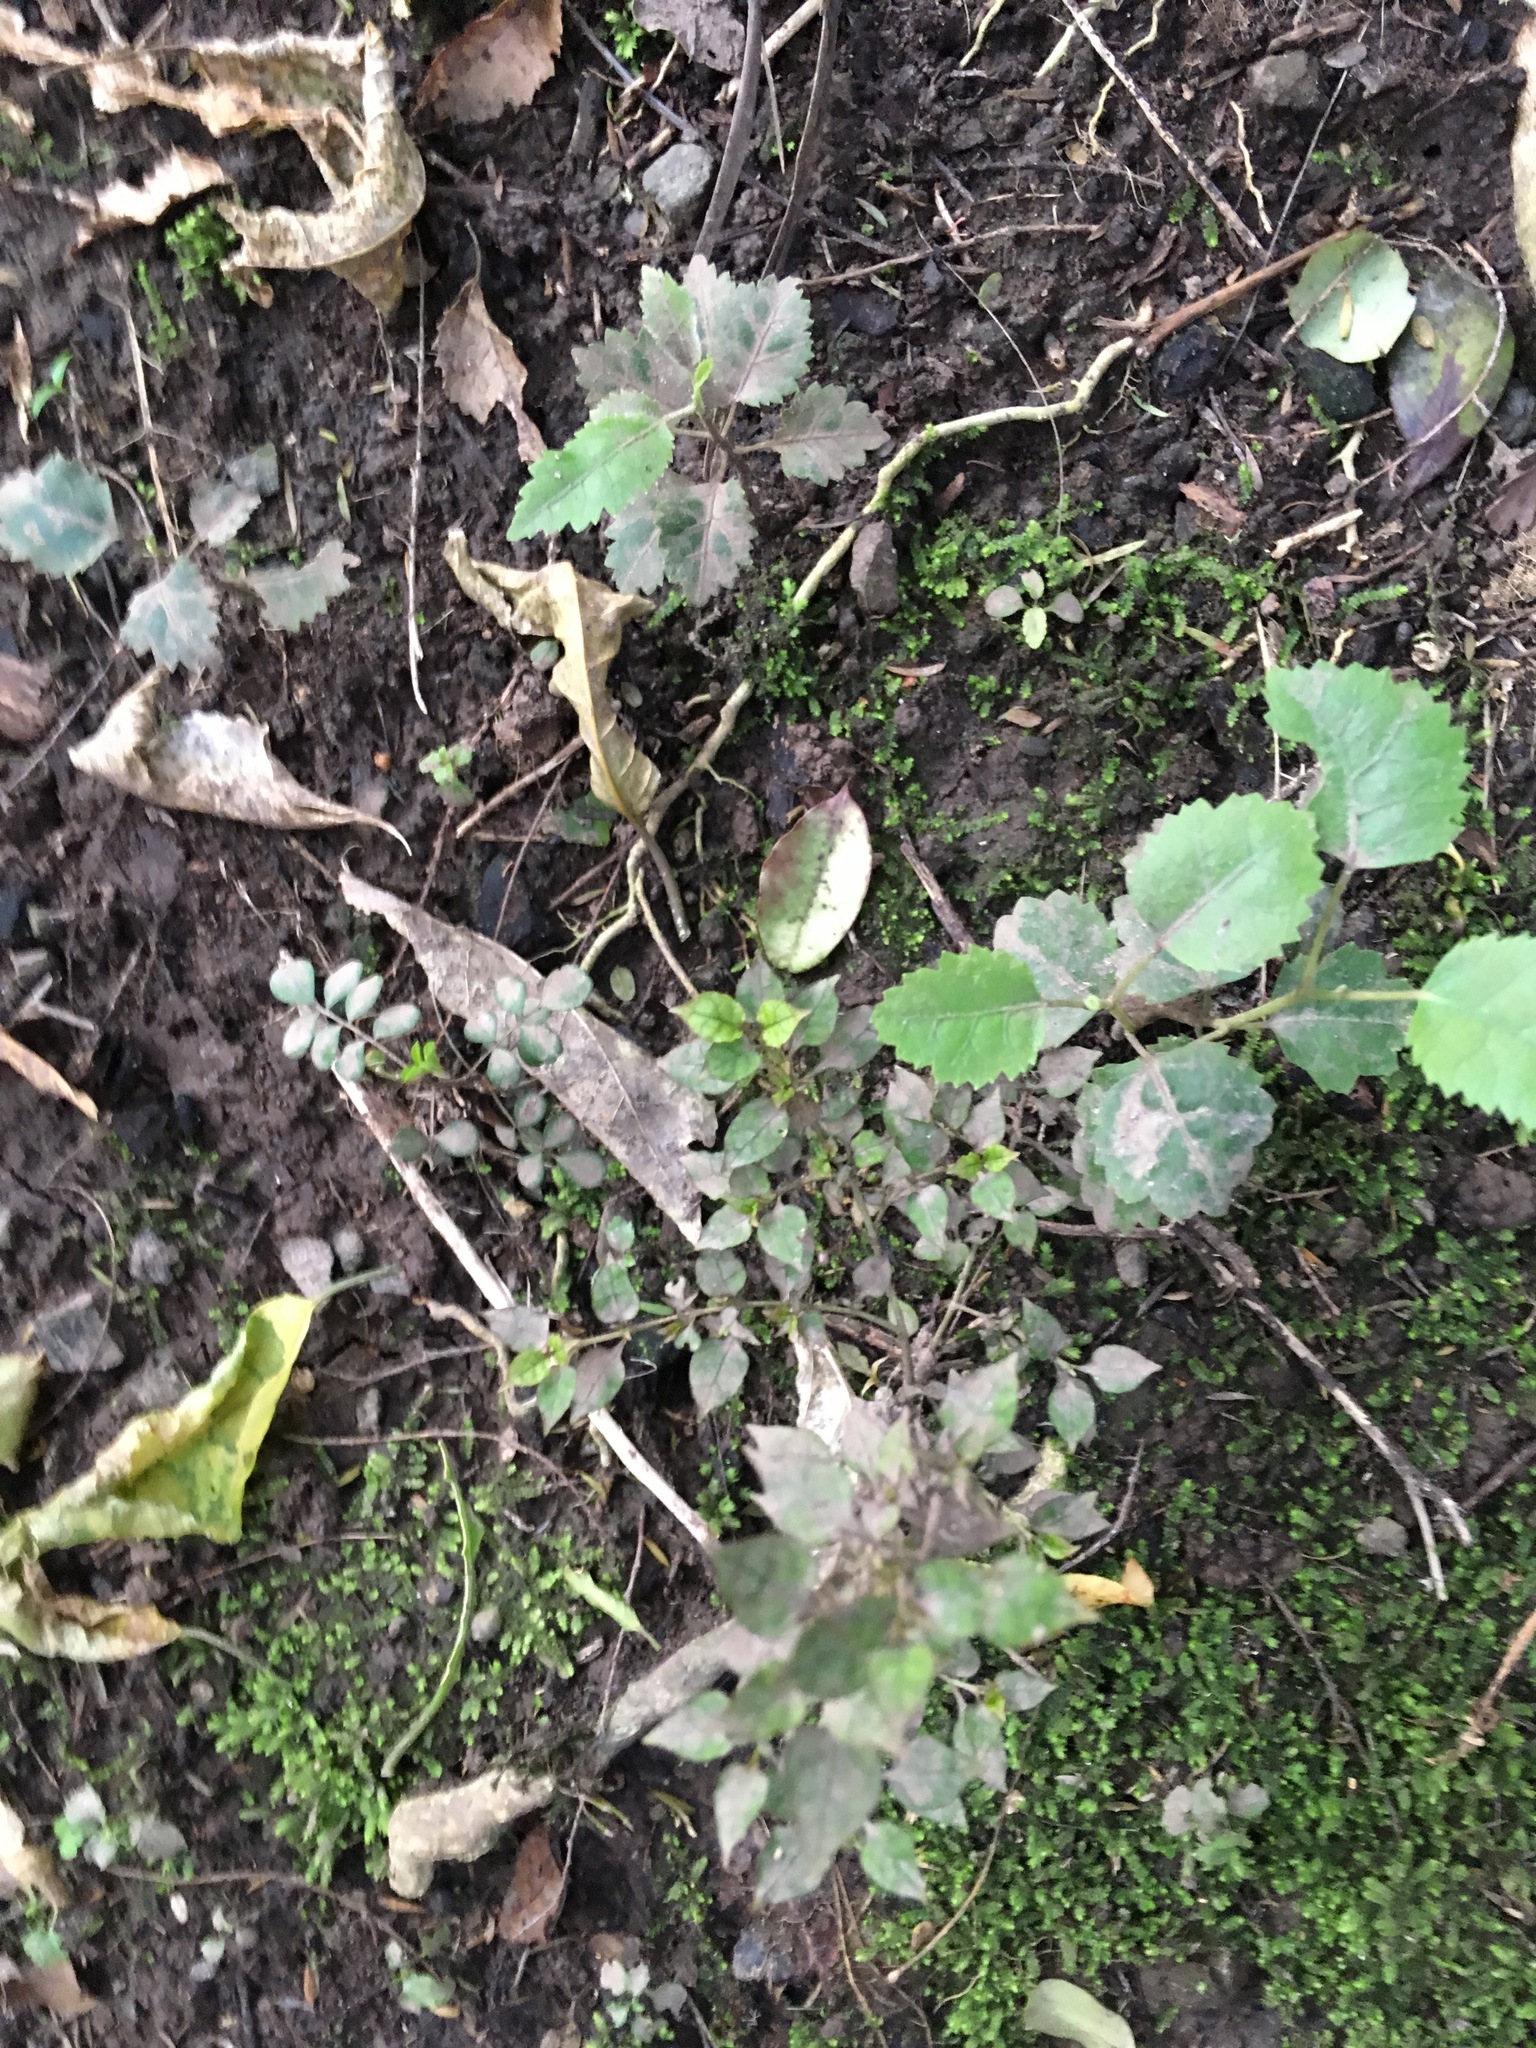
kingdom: Plantae
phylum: Tracheophyta
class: Magnoliopsida
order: Gentianales
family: Rubiaceae
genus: Coprosma
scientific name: Coprosma areolata
